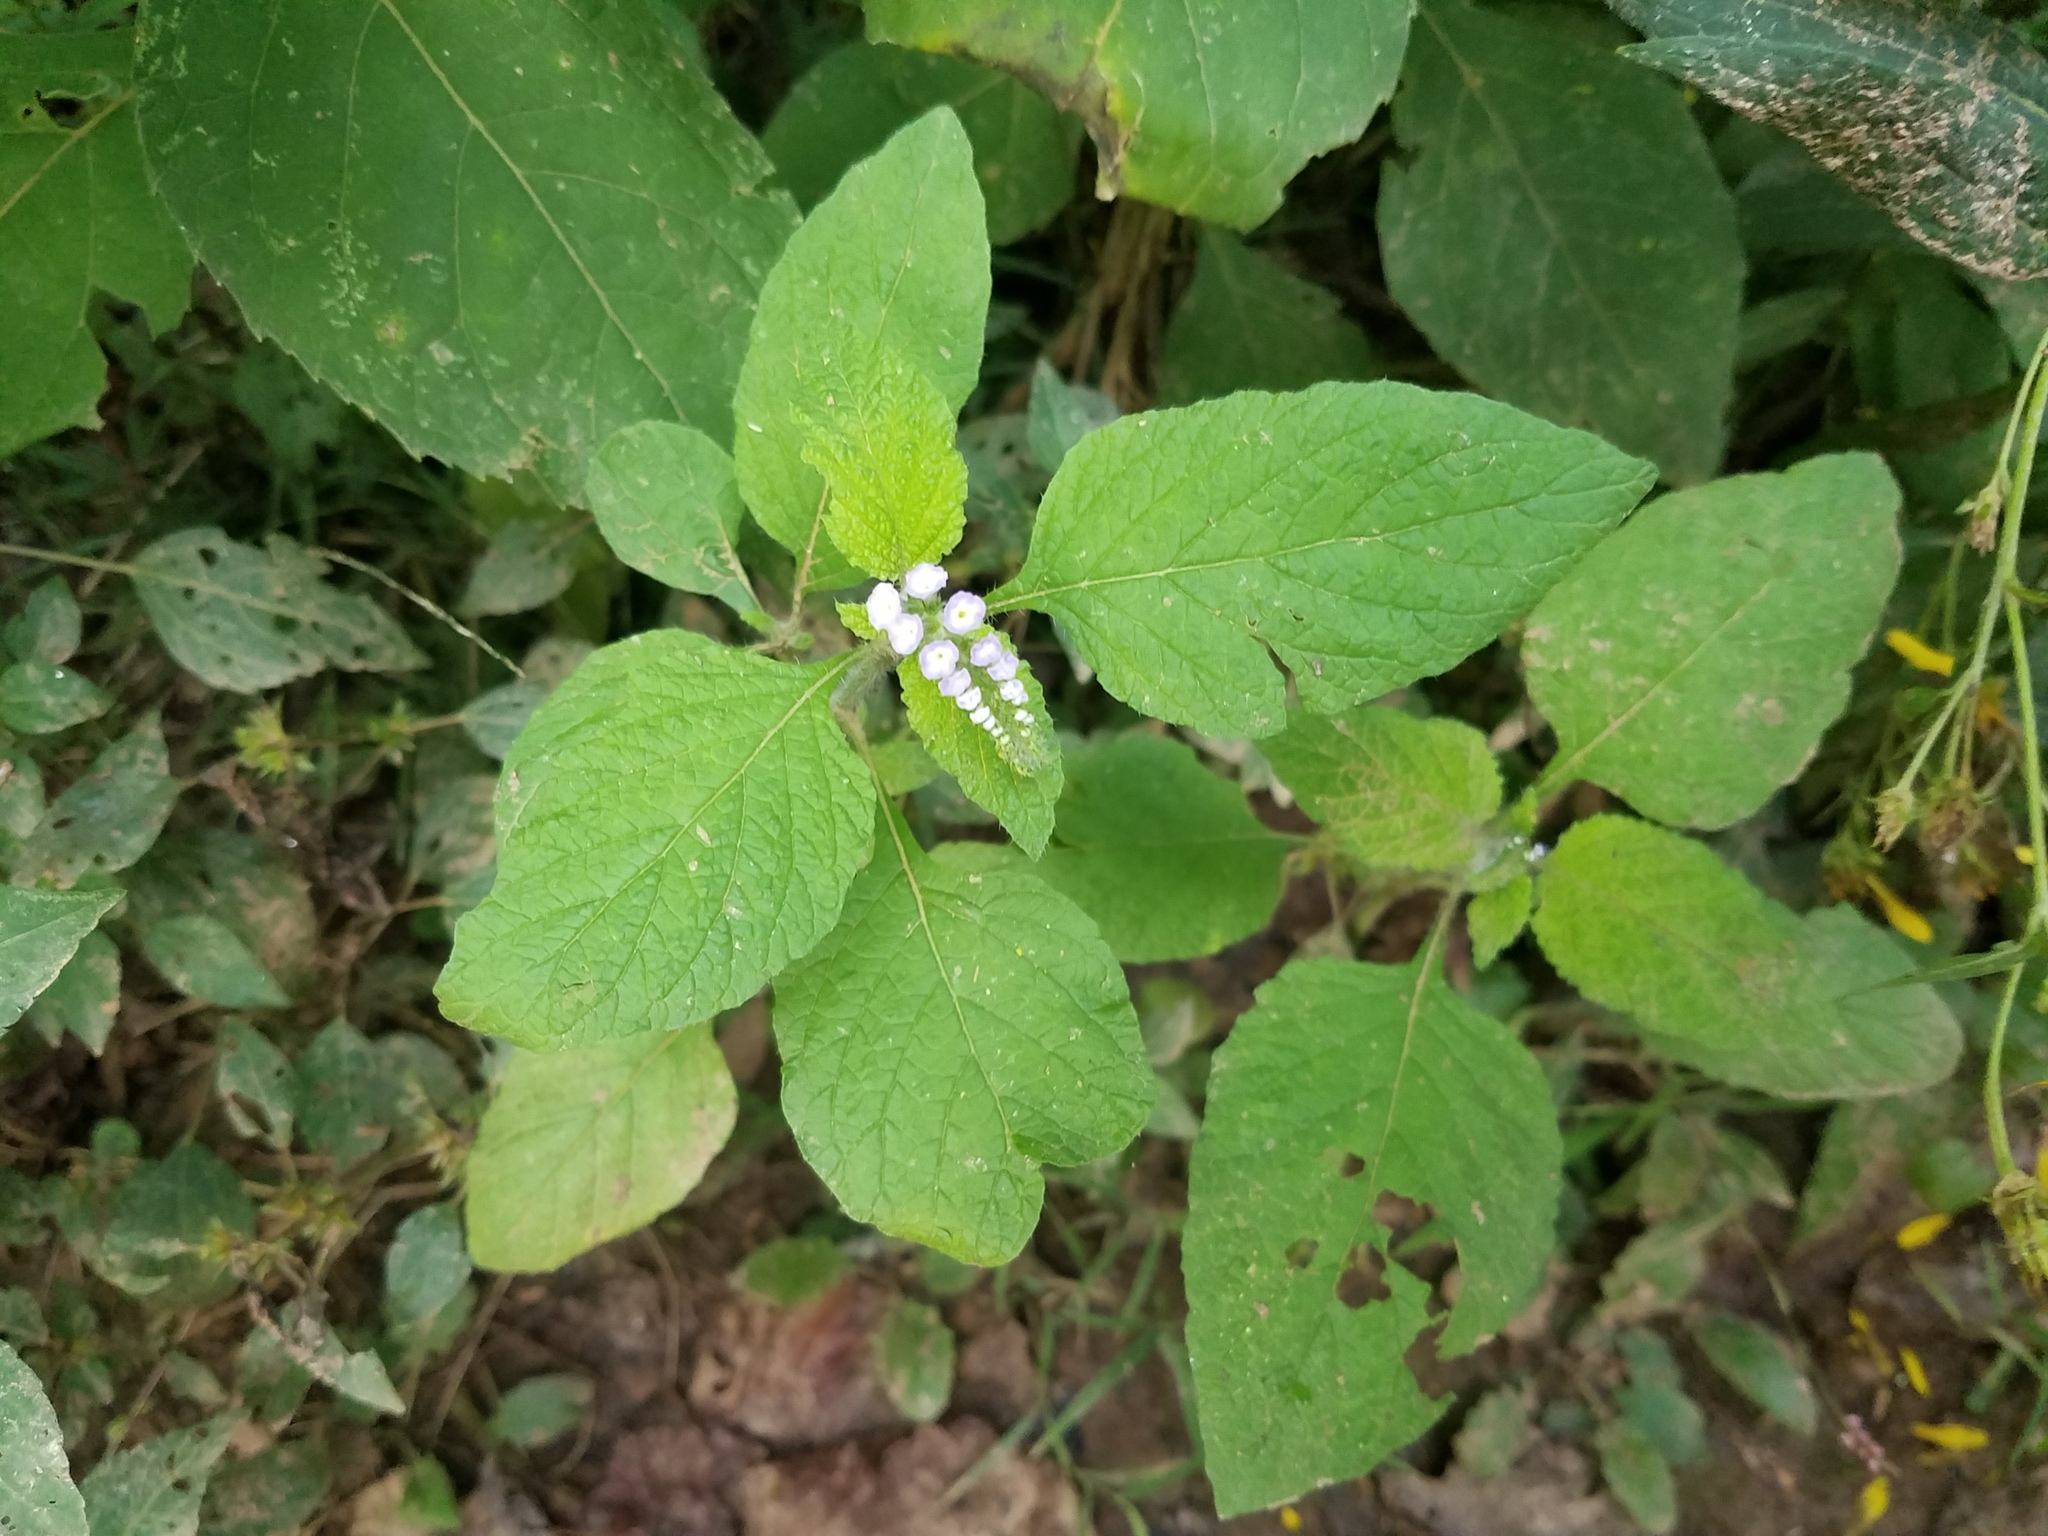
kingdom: Plantae
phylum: Tracheophyta
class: Magnoliopsida
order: Boraginales
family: Heliotropiaceae
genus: Heliotropium
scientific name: Heliotropium indicum
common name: Indian heliotrope
